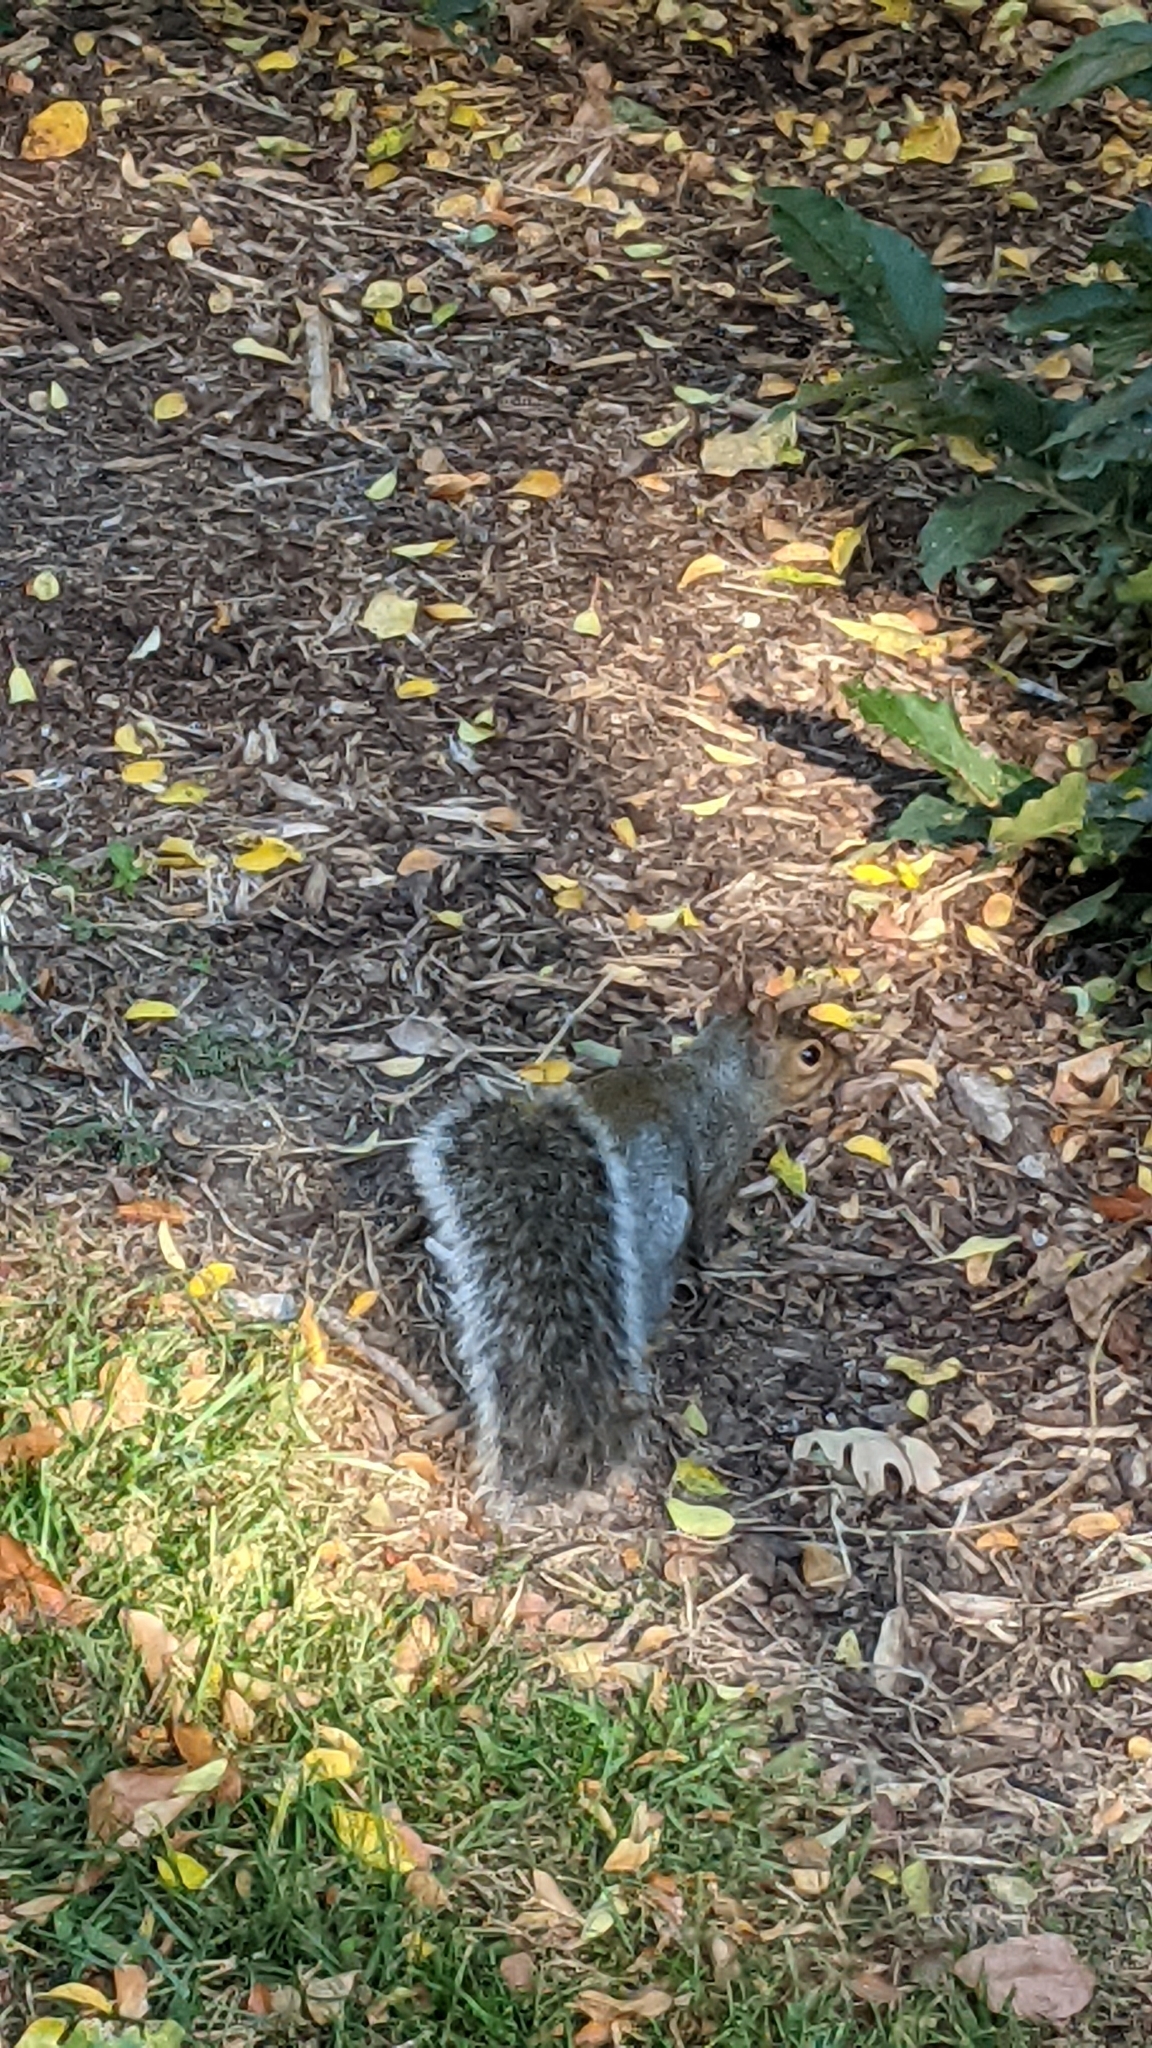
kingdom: Animalia
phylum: Chordata
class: Mammalia
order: Rodentia
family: Sciuridae
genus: Sciurus
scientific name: Sciurus carolinensis
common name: Eastern gray squirrel
